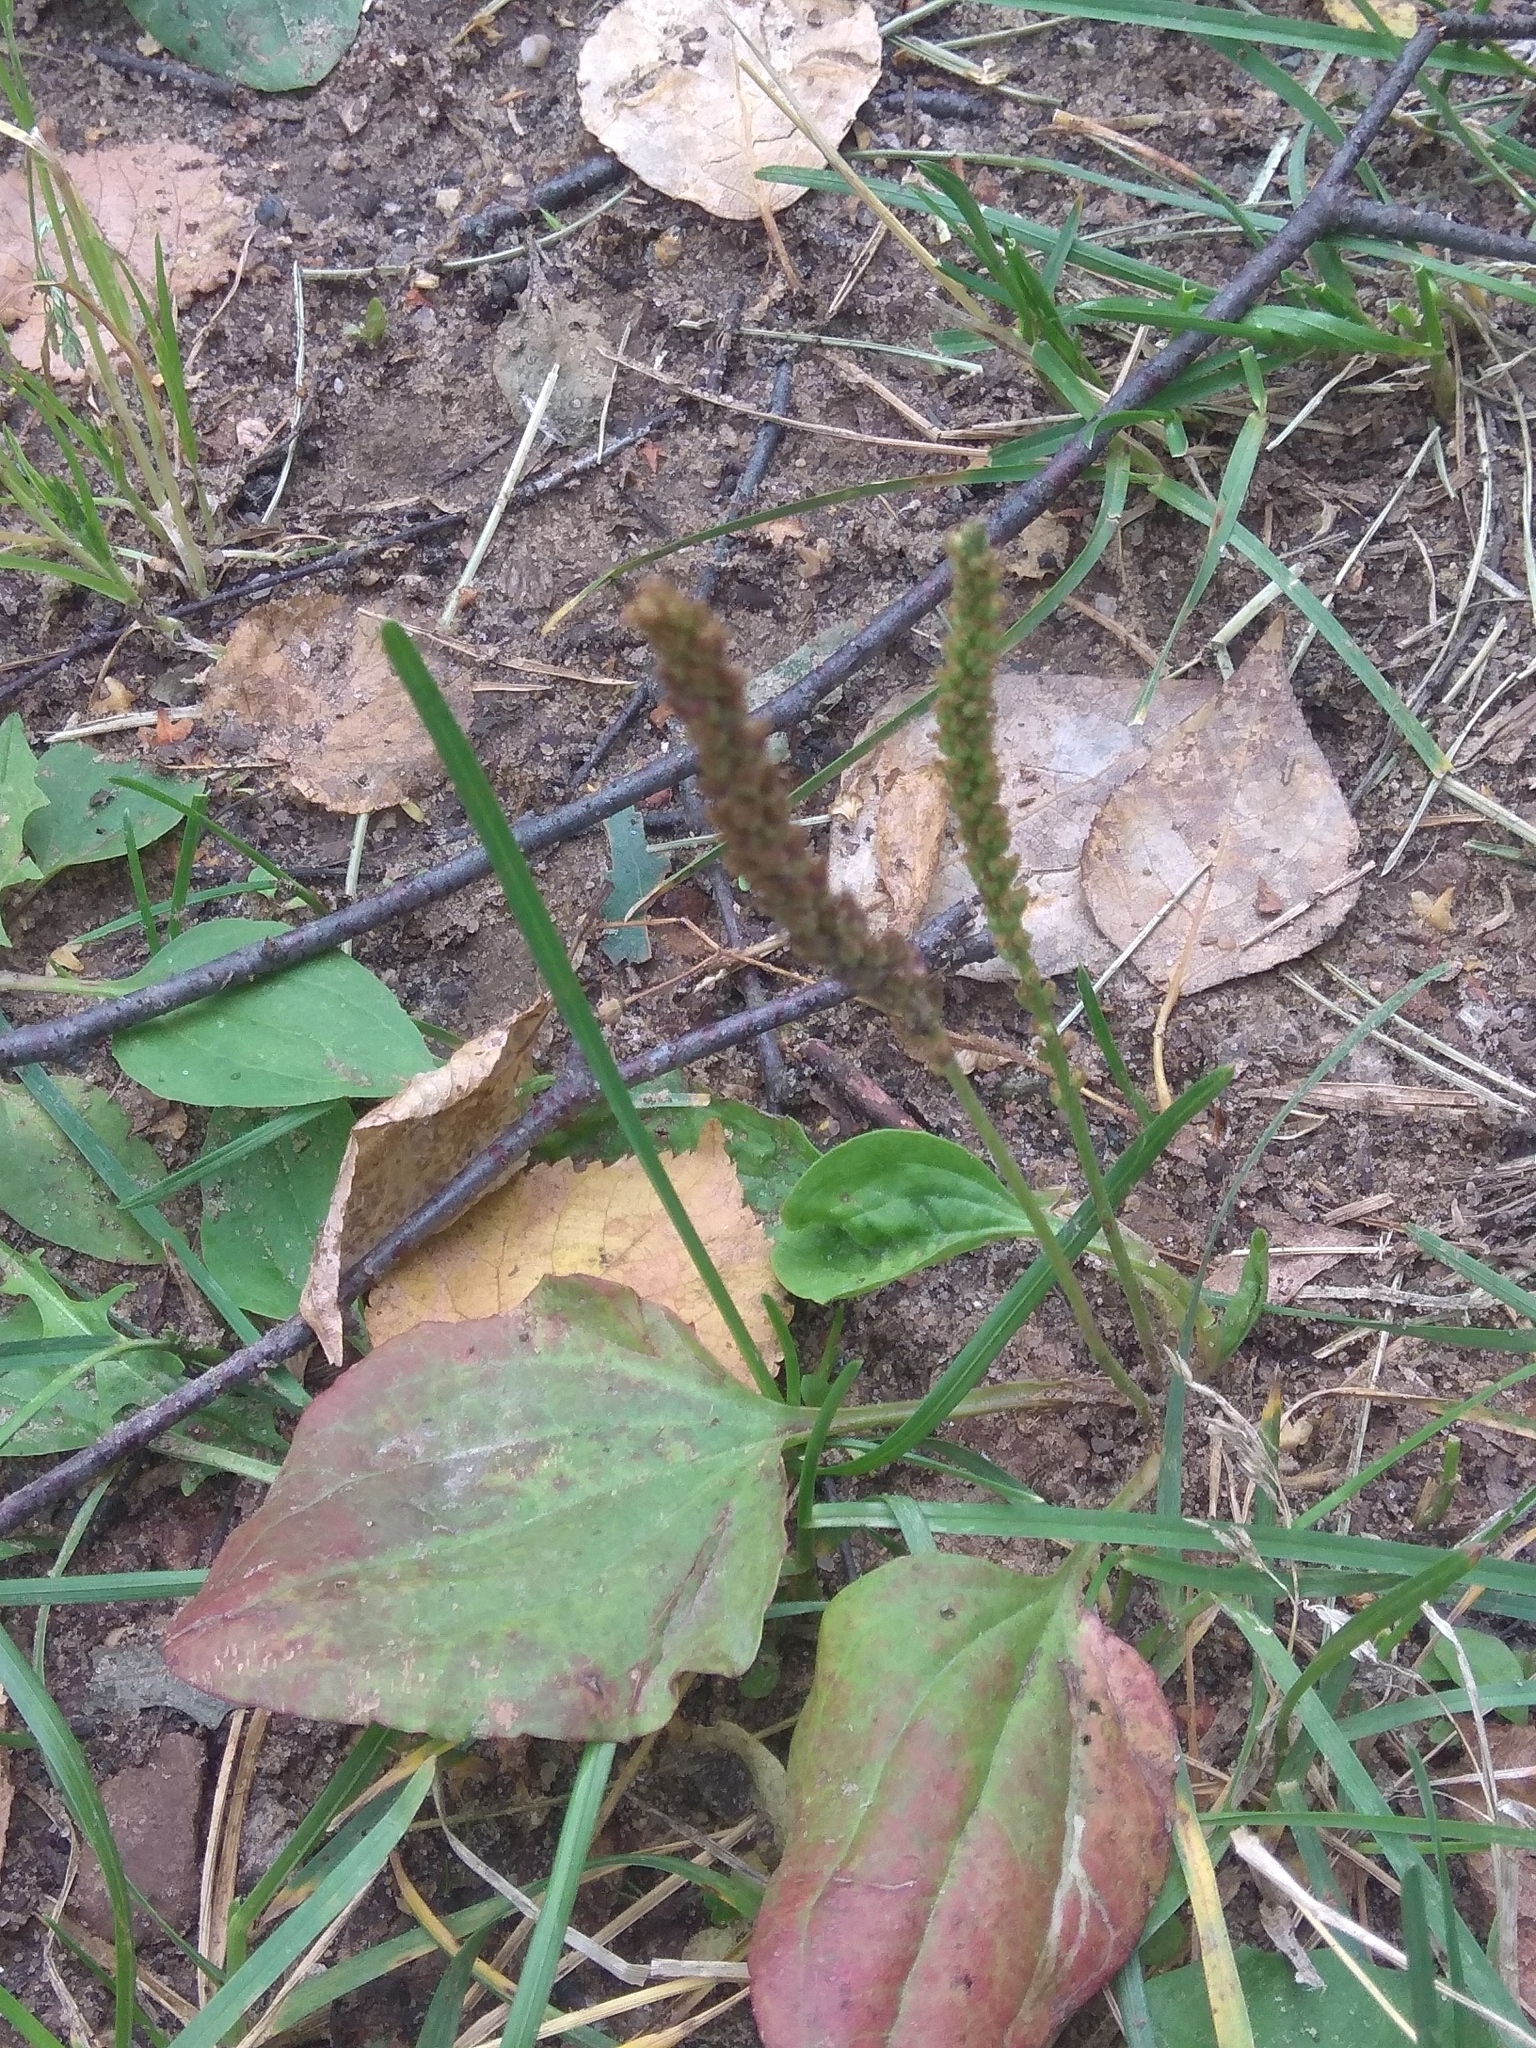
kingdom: Plantae
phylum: Tracheophyta
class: Magnoliopsida
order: Lamiales
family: Plantaginaceae
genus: Plantago
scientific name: Plantago major
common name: Common plantain
